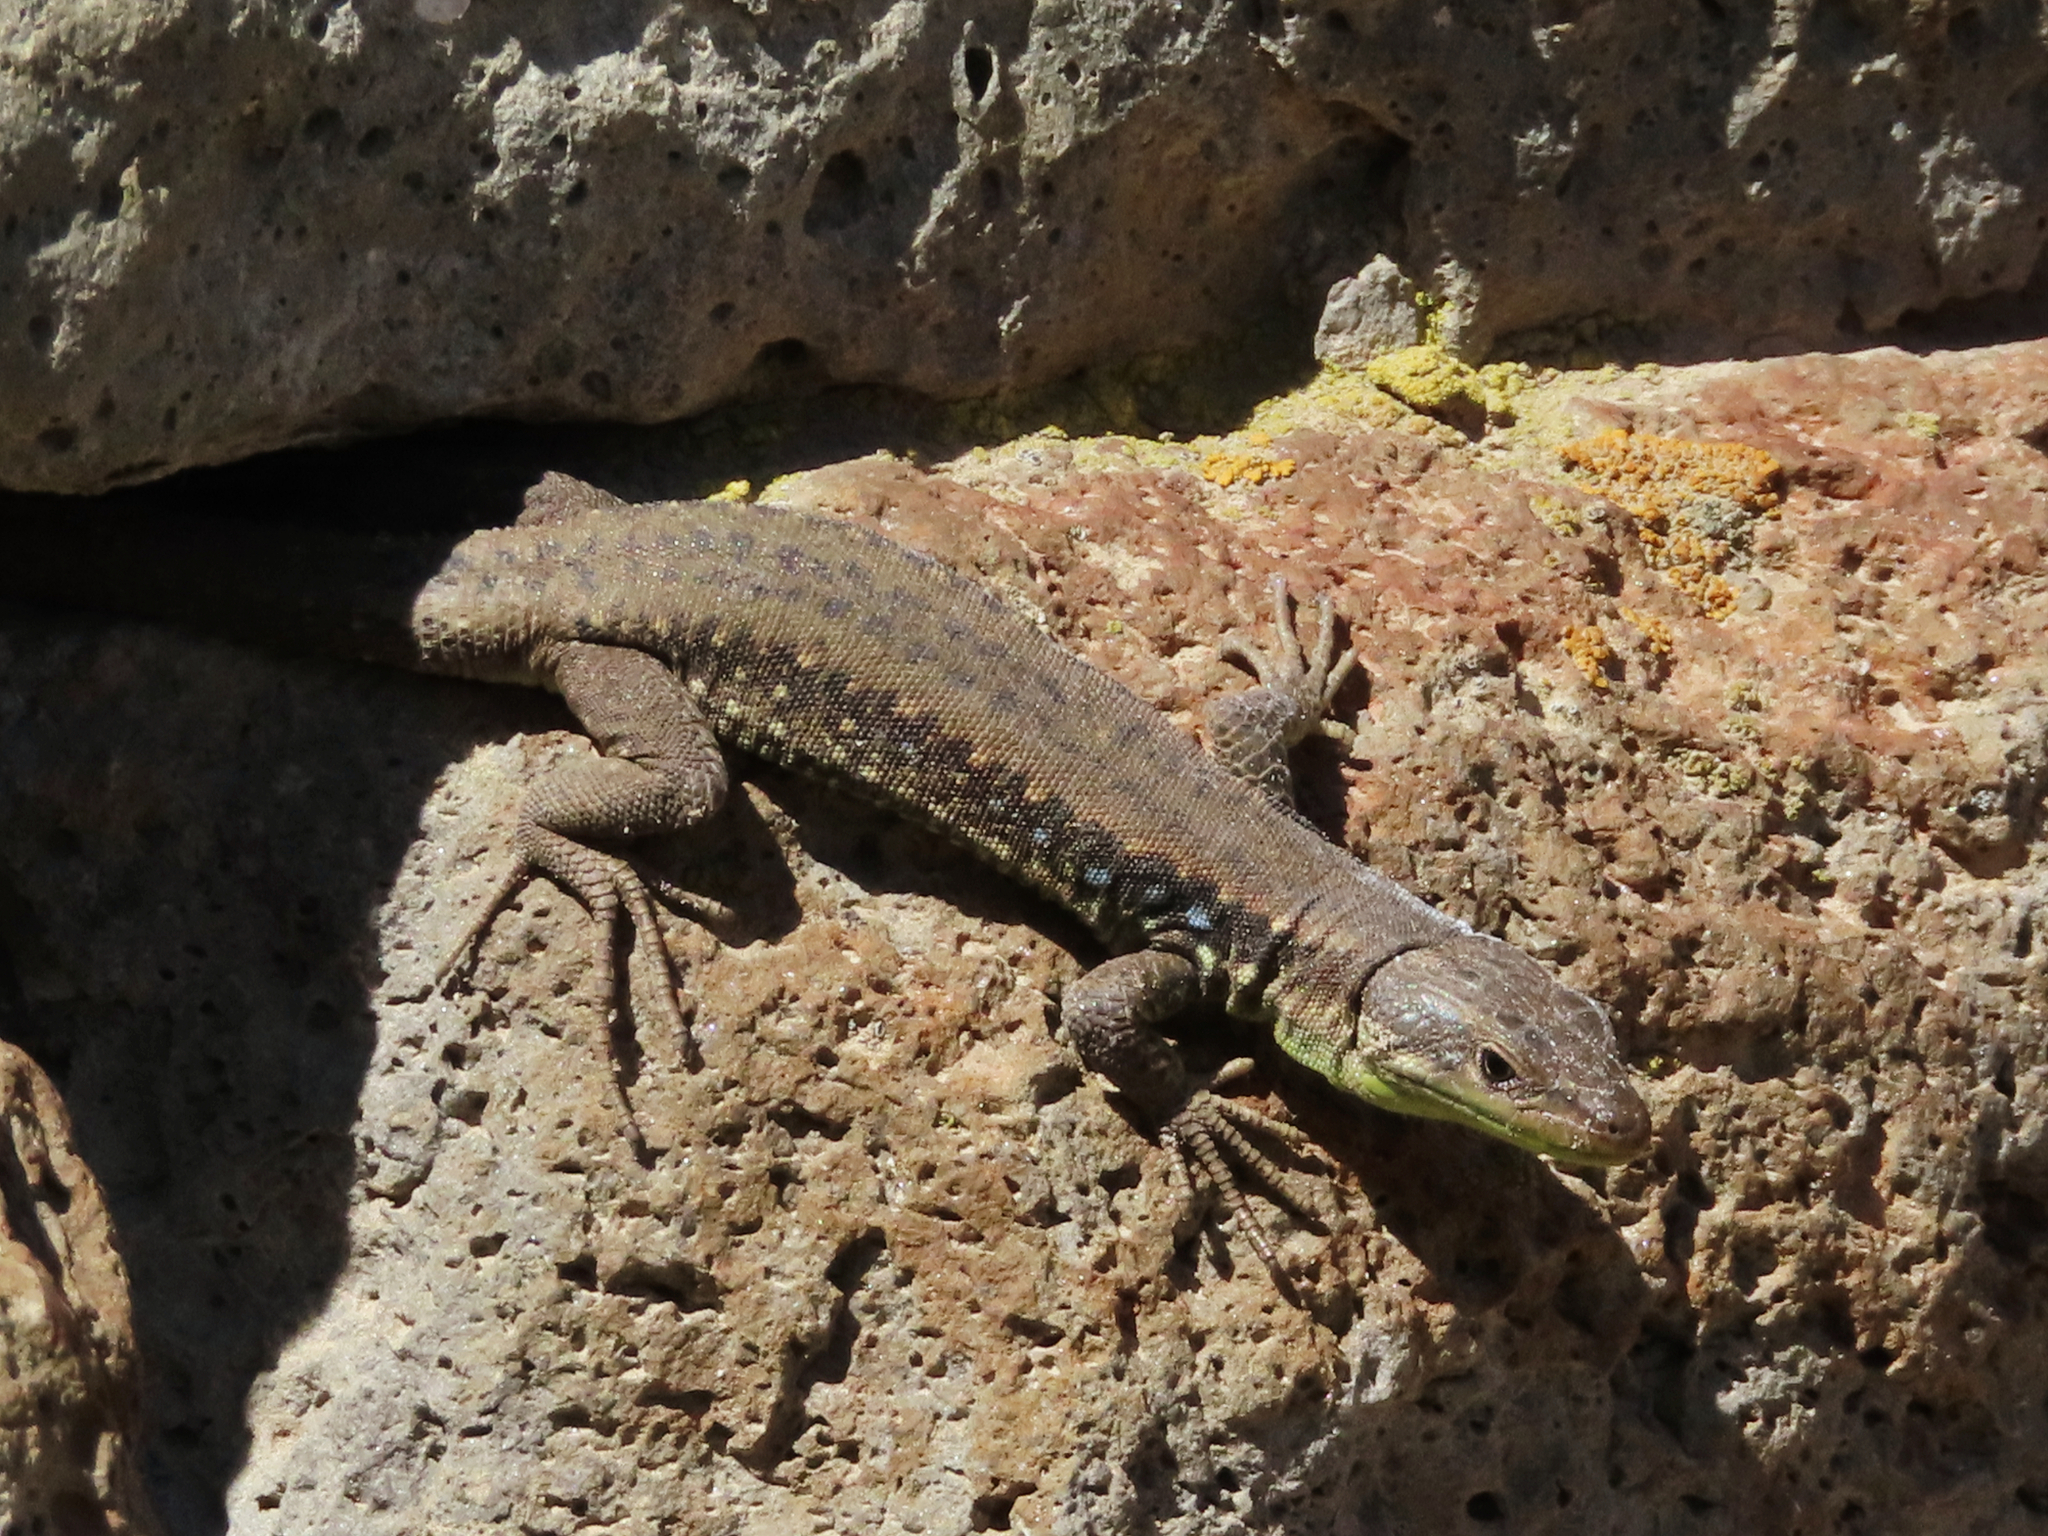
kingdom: Animalia
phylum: Chordata
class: Squamata
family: Lacertidae
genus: Darevskia
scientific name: Darevskia raddei
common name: Radde's lizard
